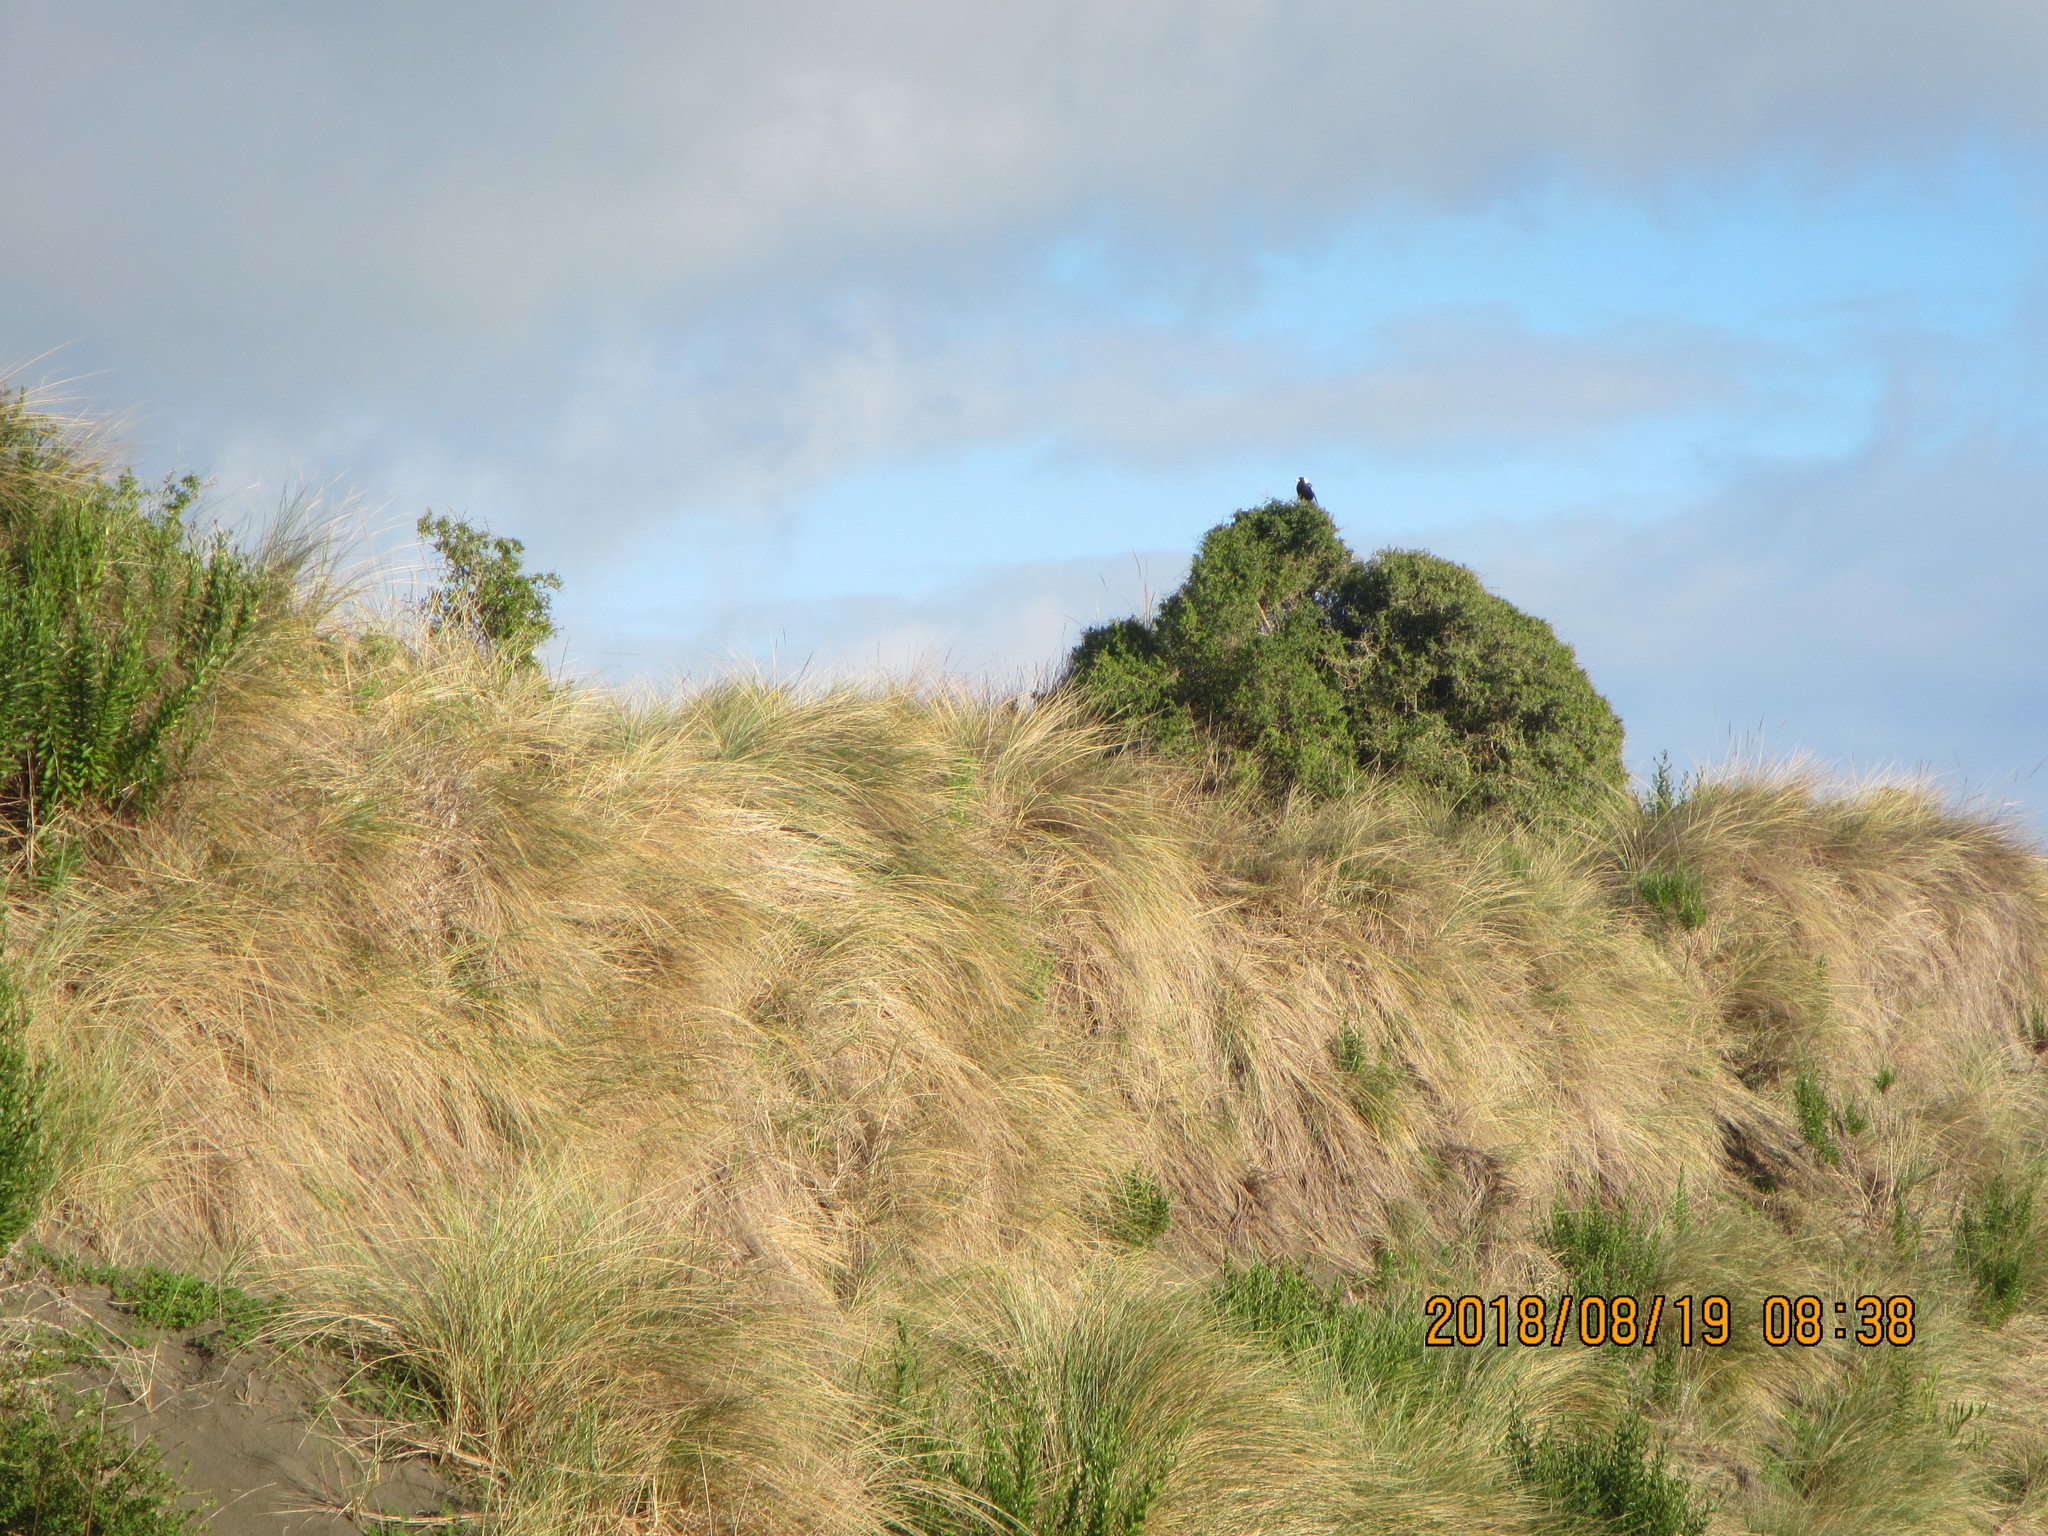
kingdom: Animalia
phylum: Chordata
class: Aves
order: Passeriformes
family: Cracticidae
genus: Gymnorhina
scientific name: Gymnorhina tibicen
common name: Australian magpie
